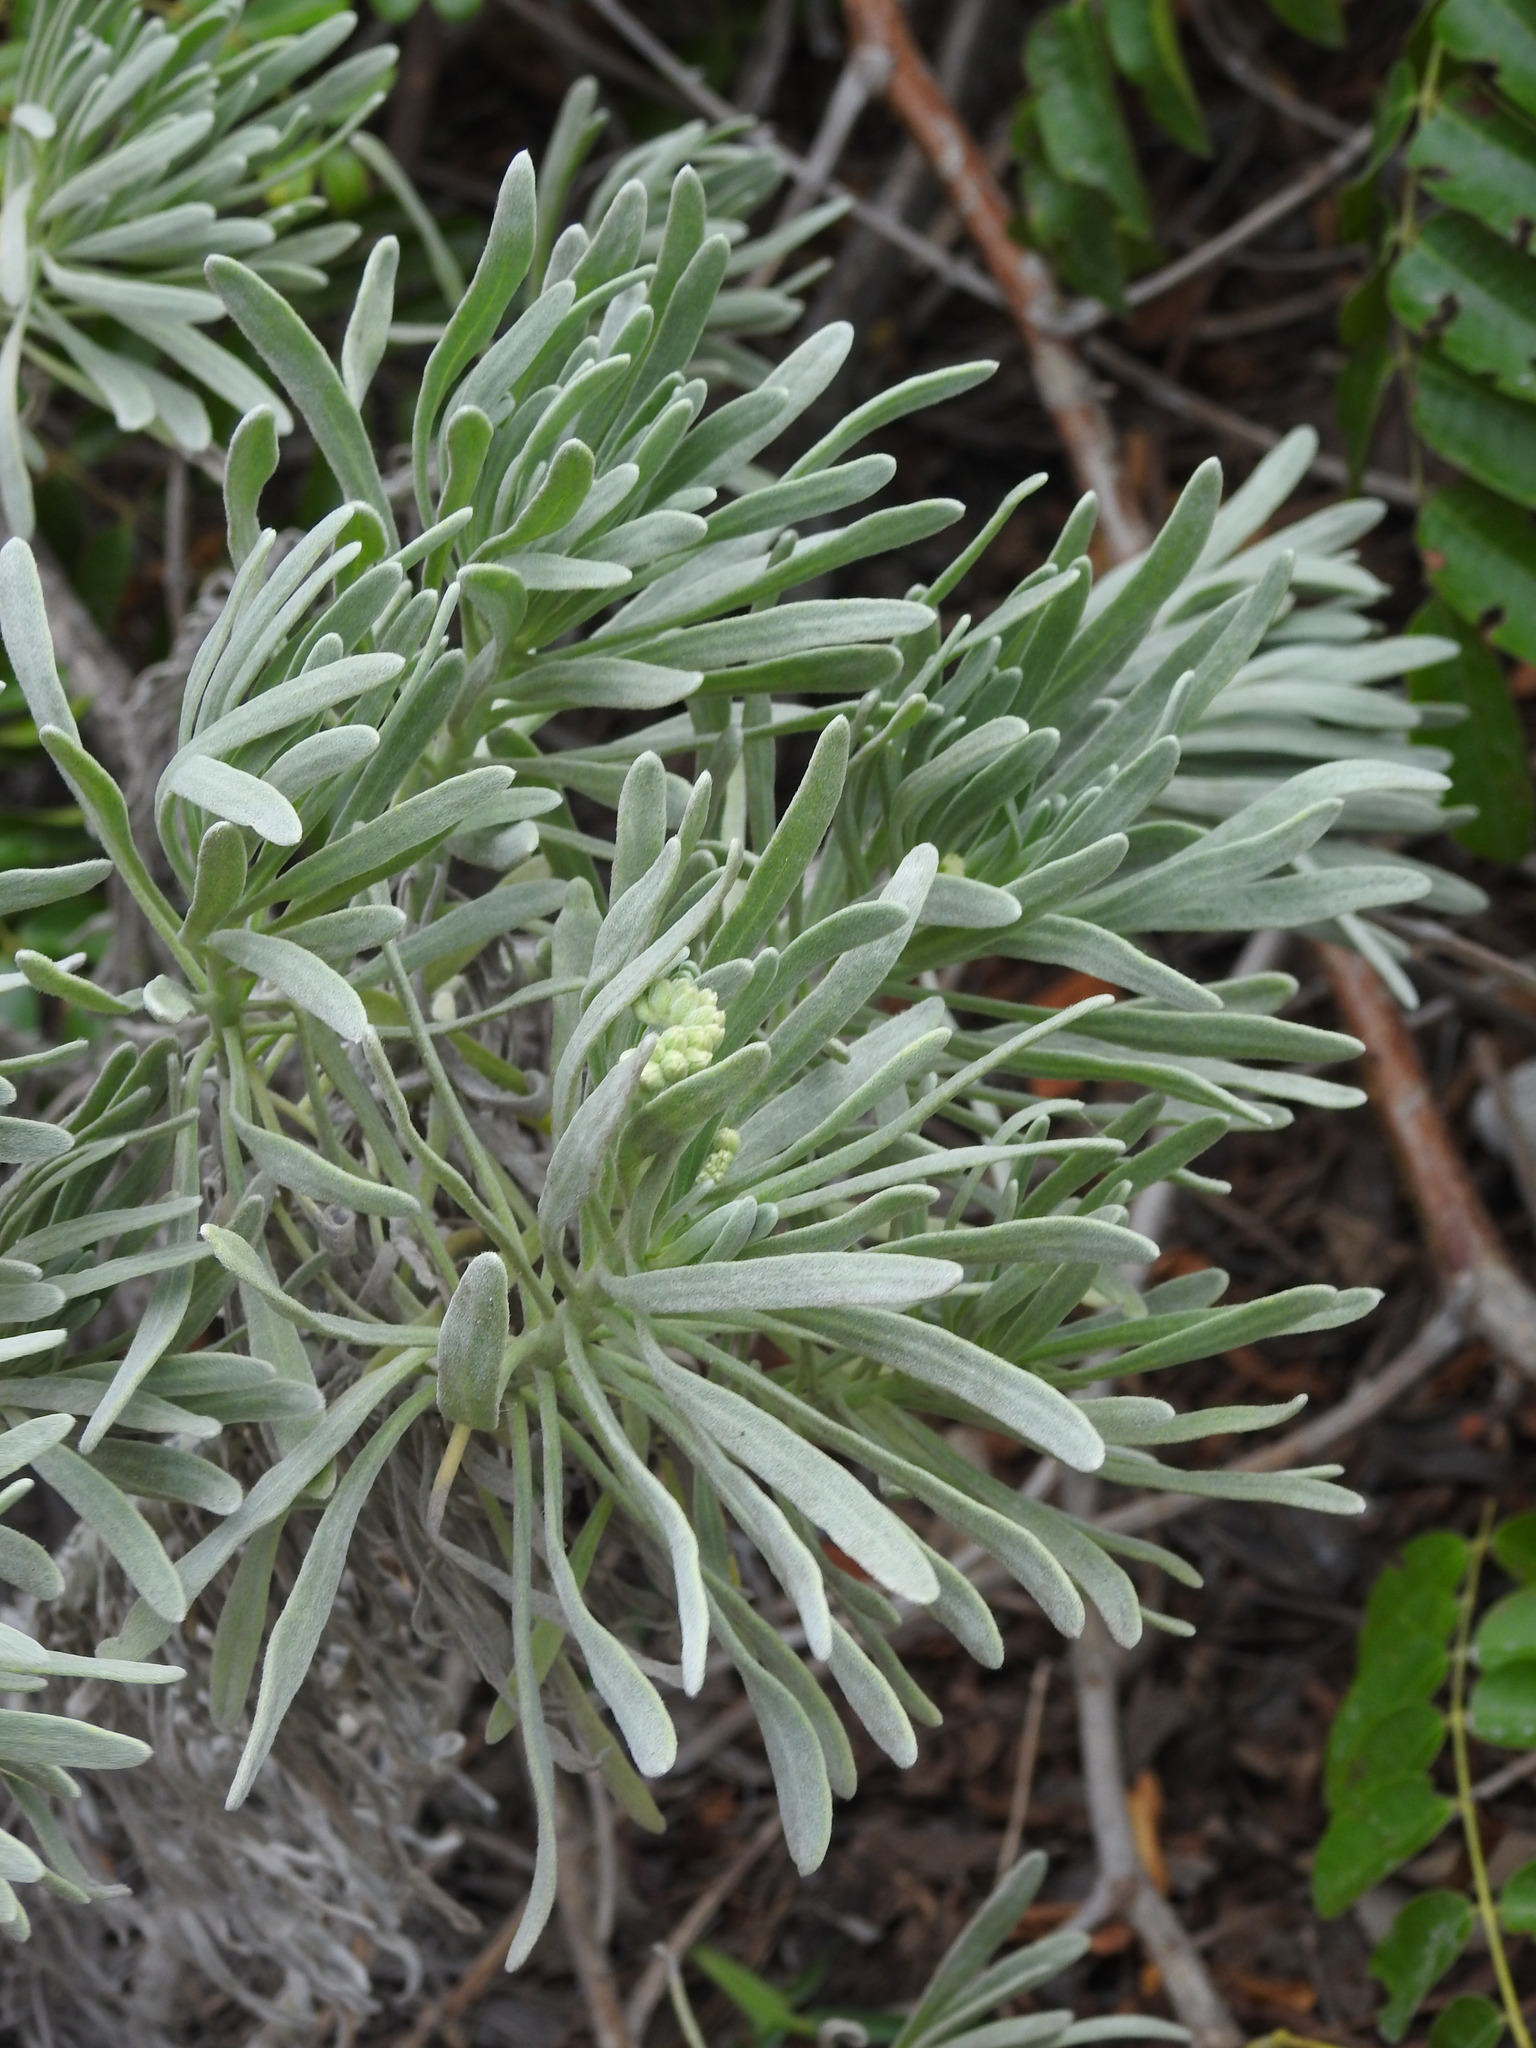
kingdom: Plantae
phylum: Tracheophyta
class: Magnoliopsida
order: Boraginales
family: Heliotropiaceae
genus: Tournefortia
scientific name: Tournefortia gnaphalodes
